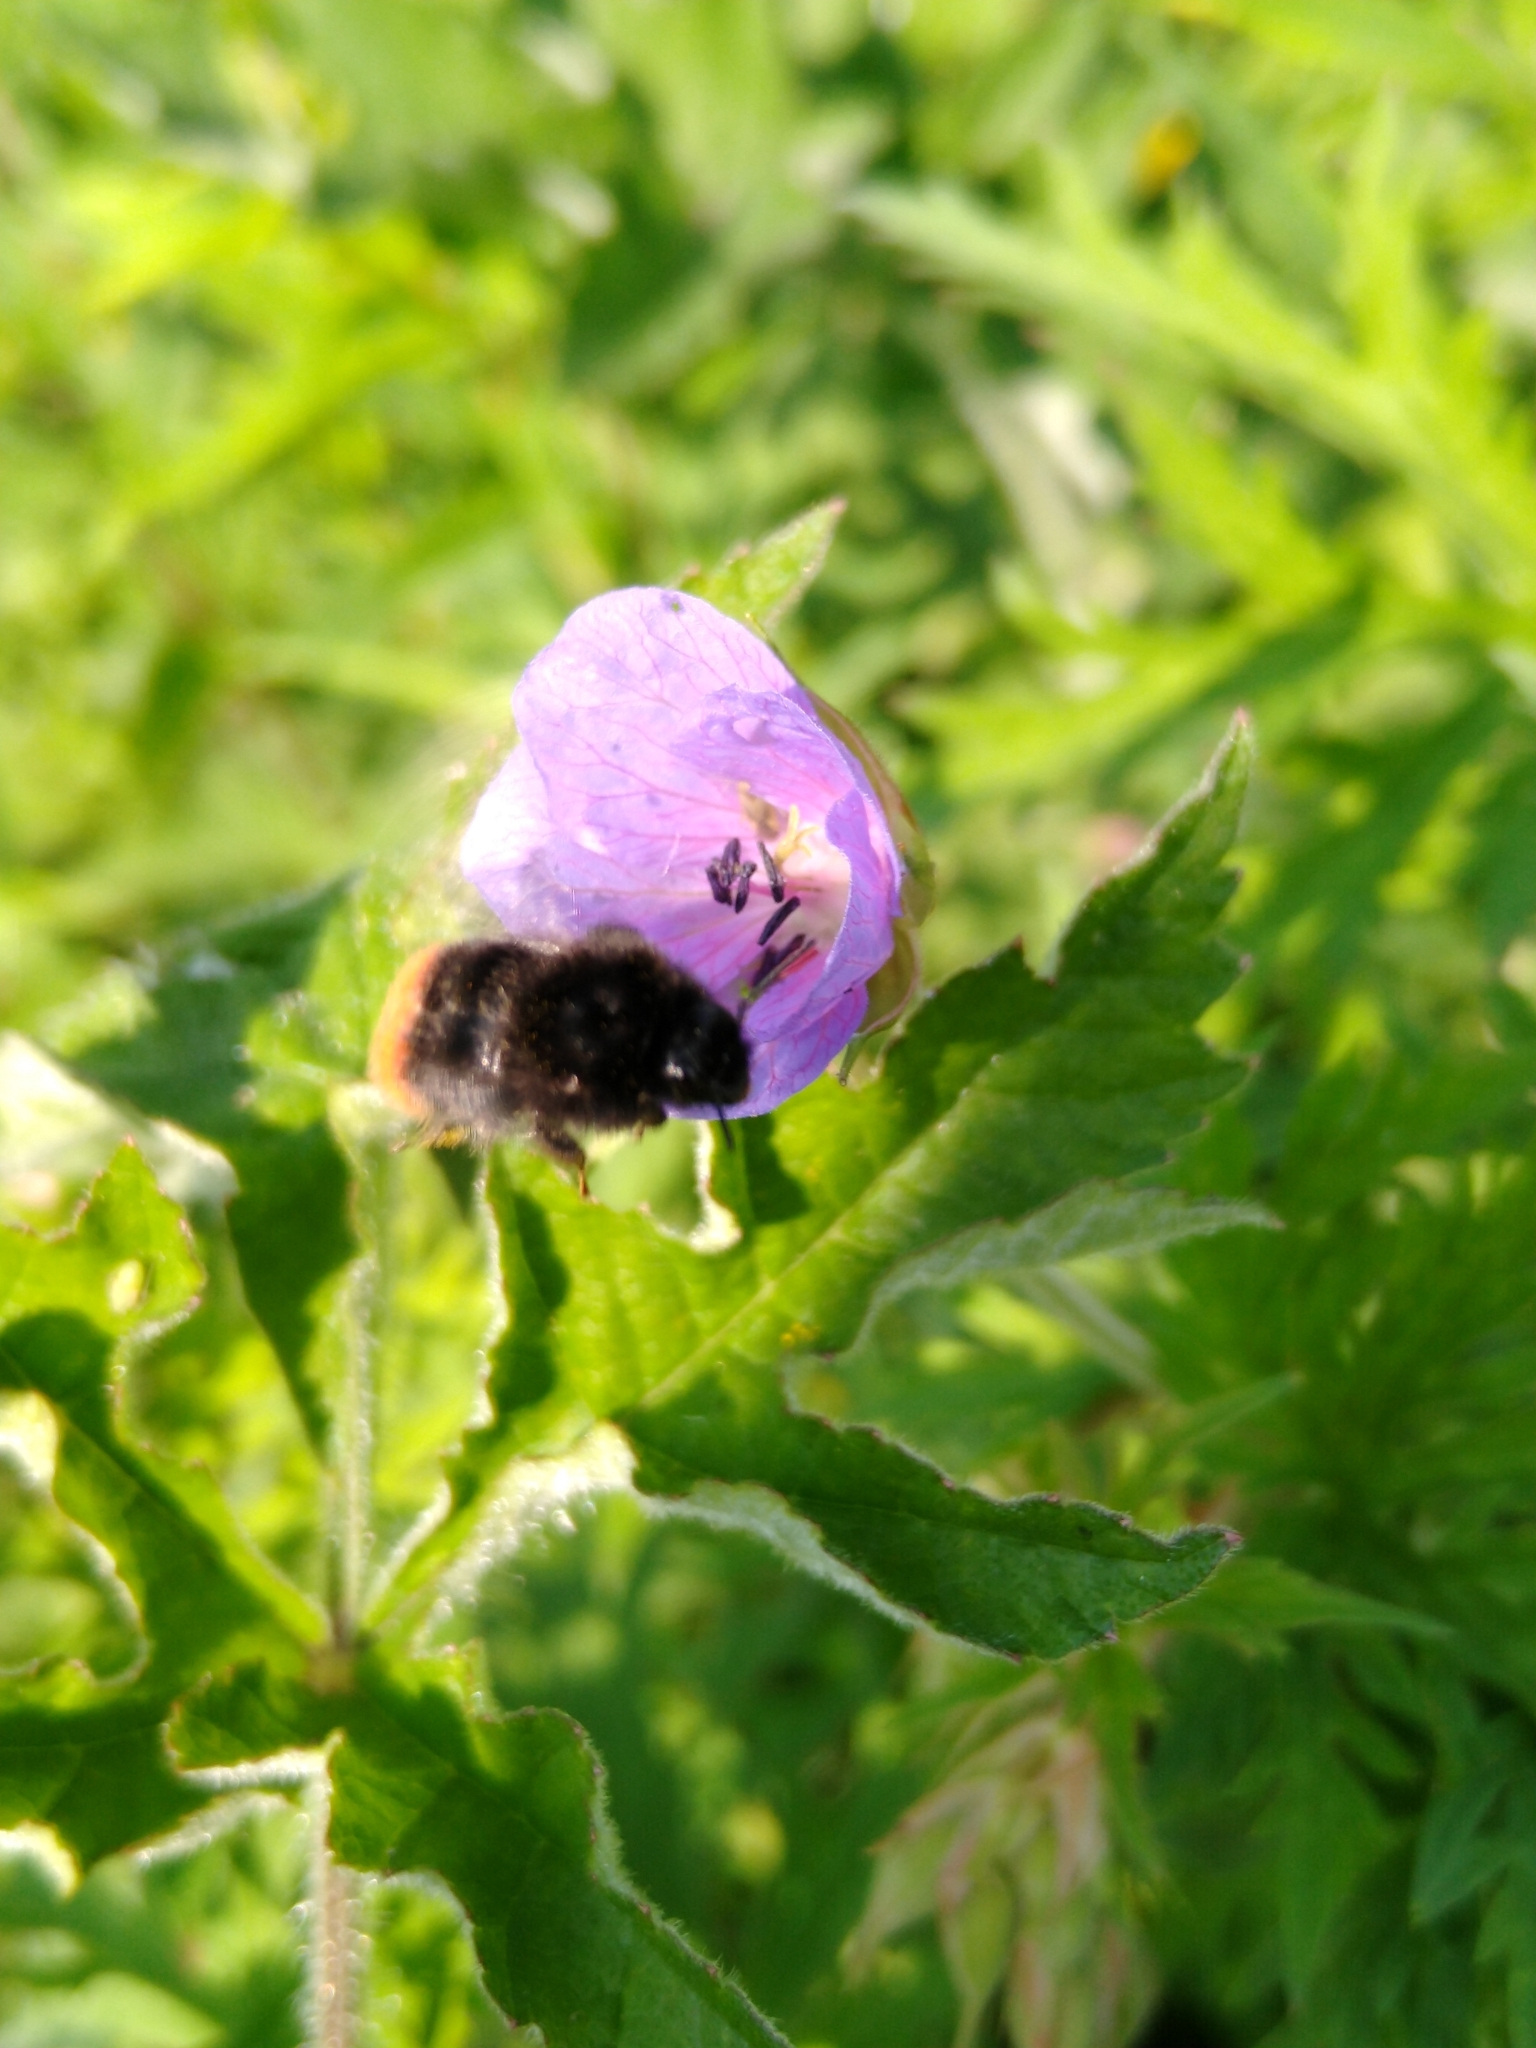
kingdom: Animalia
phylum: Arthropoda
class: Insecta
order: Hymenoptera
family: Apidae
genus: Bombus
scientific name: Bombus lapidarius
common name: Large red-tailed humble-bee
